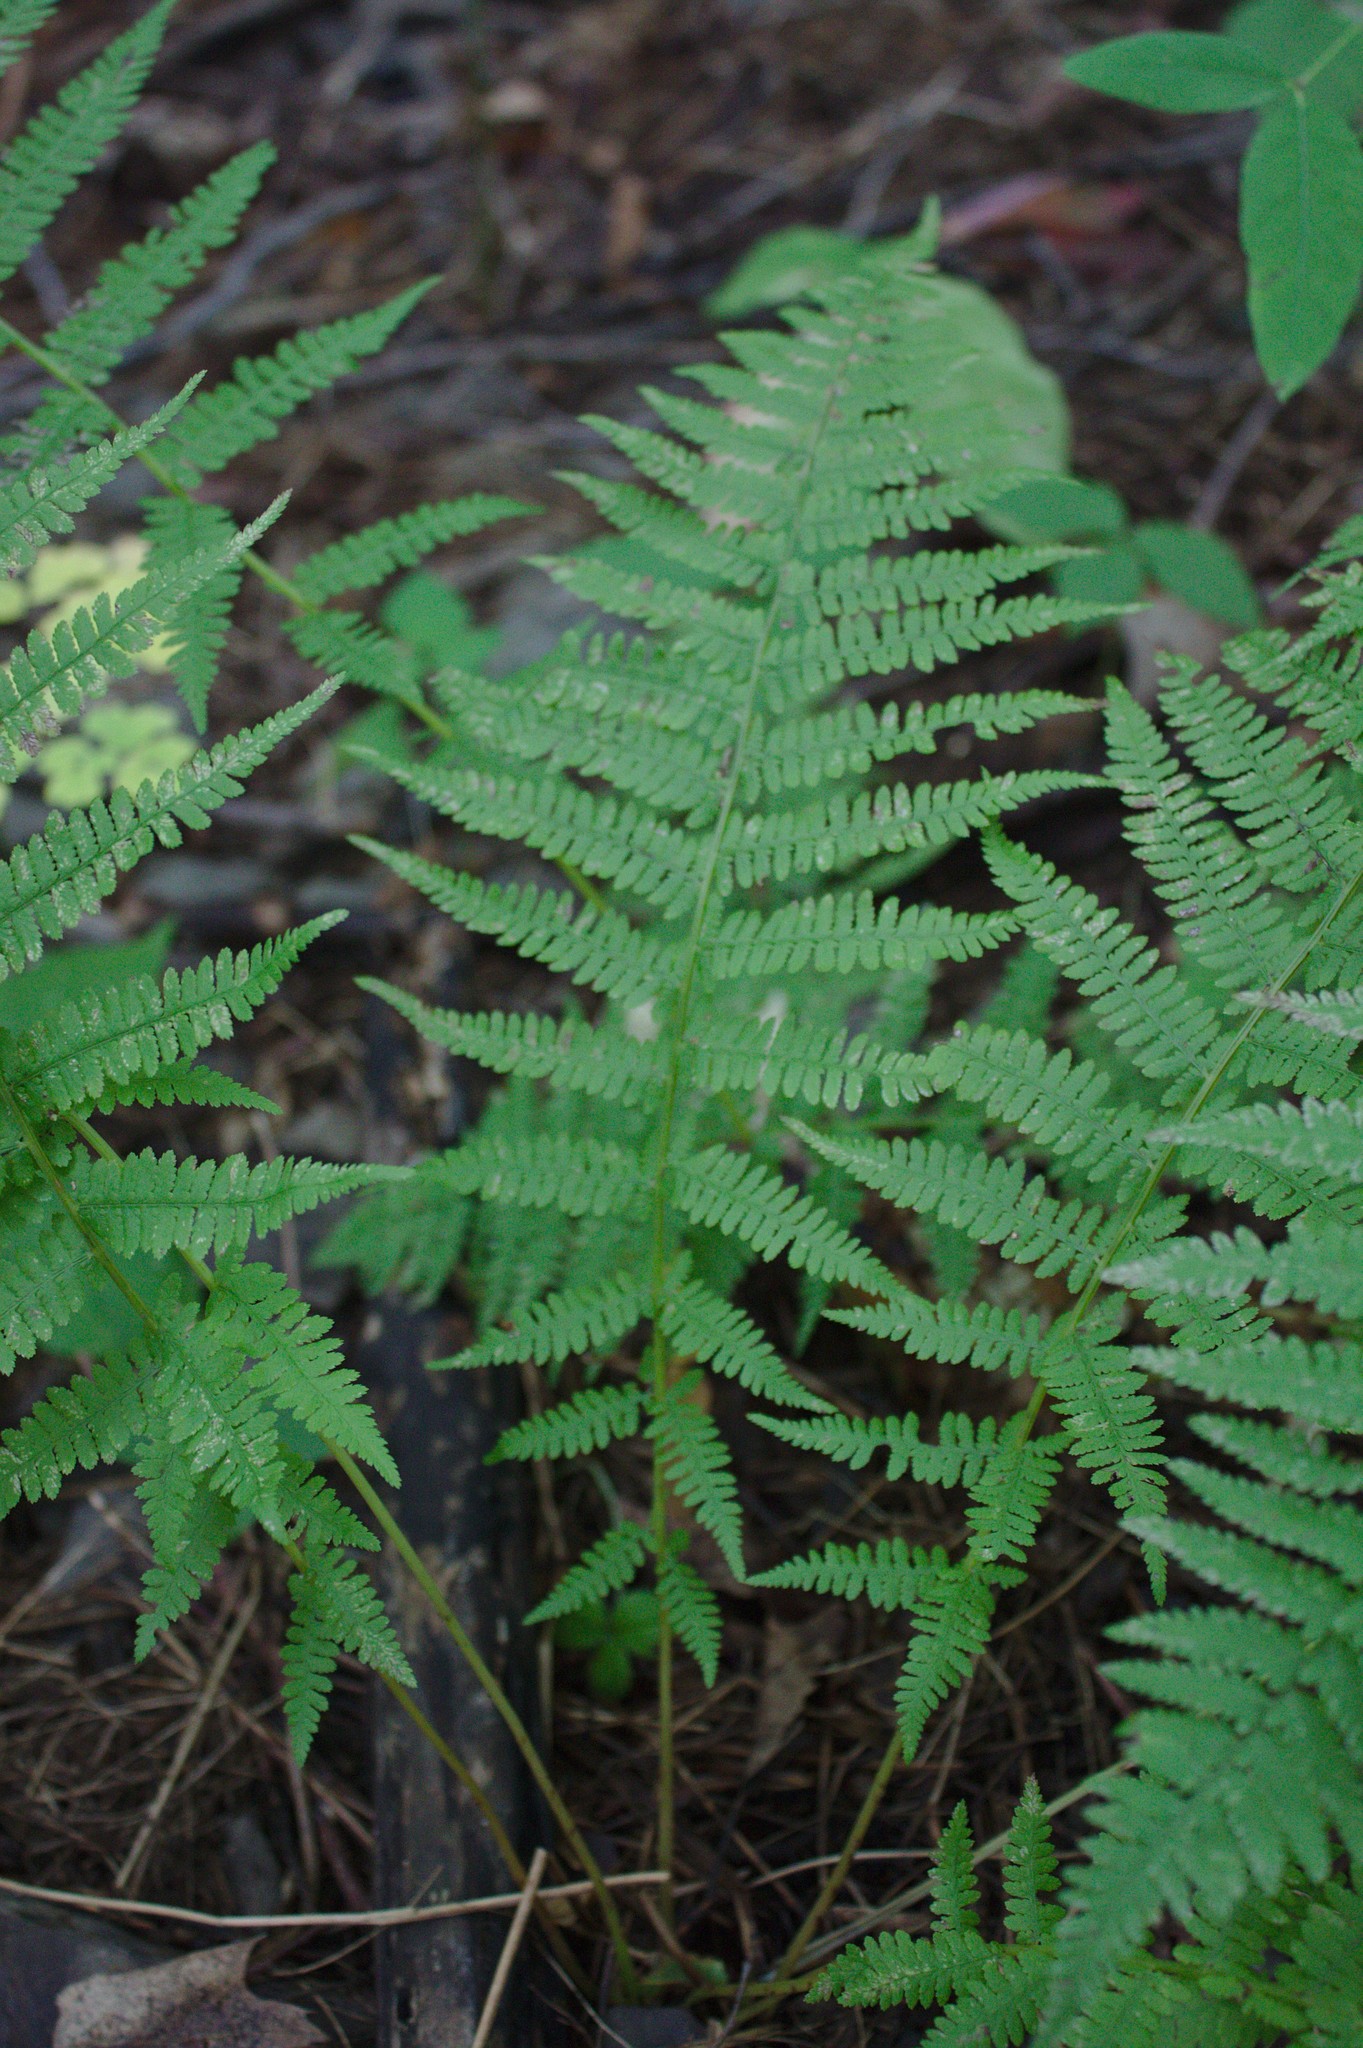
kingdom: Plantae
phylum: Tracheophyta
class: Polypodiopsida
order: Polypodiales
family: Thelypteridaceae
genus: Amauropelta
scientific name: Amauropelta noveboracensis
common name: New york fern
